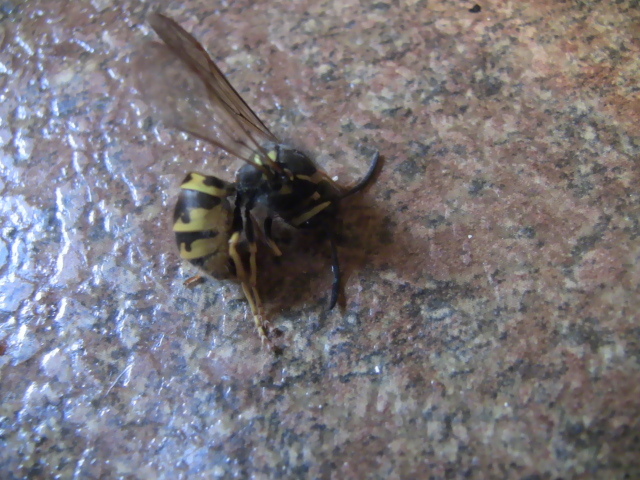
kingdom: Animalia
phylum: Arthropoda
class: Insecta
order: Hymenoptera
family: Vespidae
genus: Vespula
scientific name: Vespula germanica
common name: German wasp
